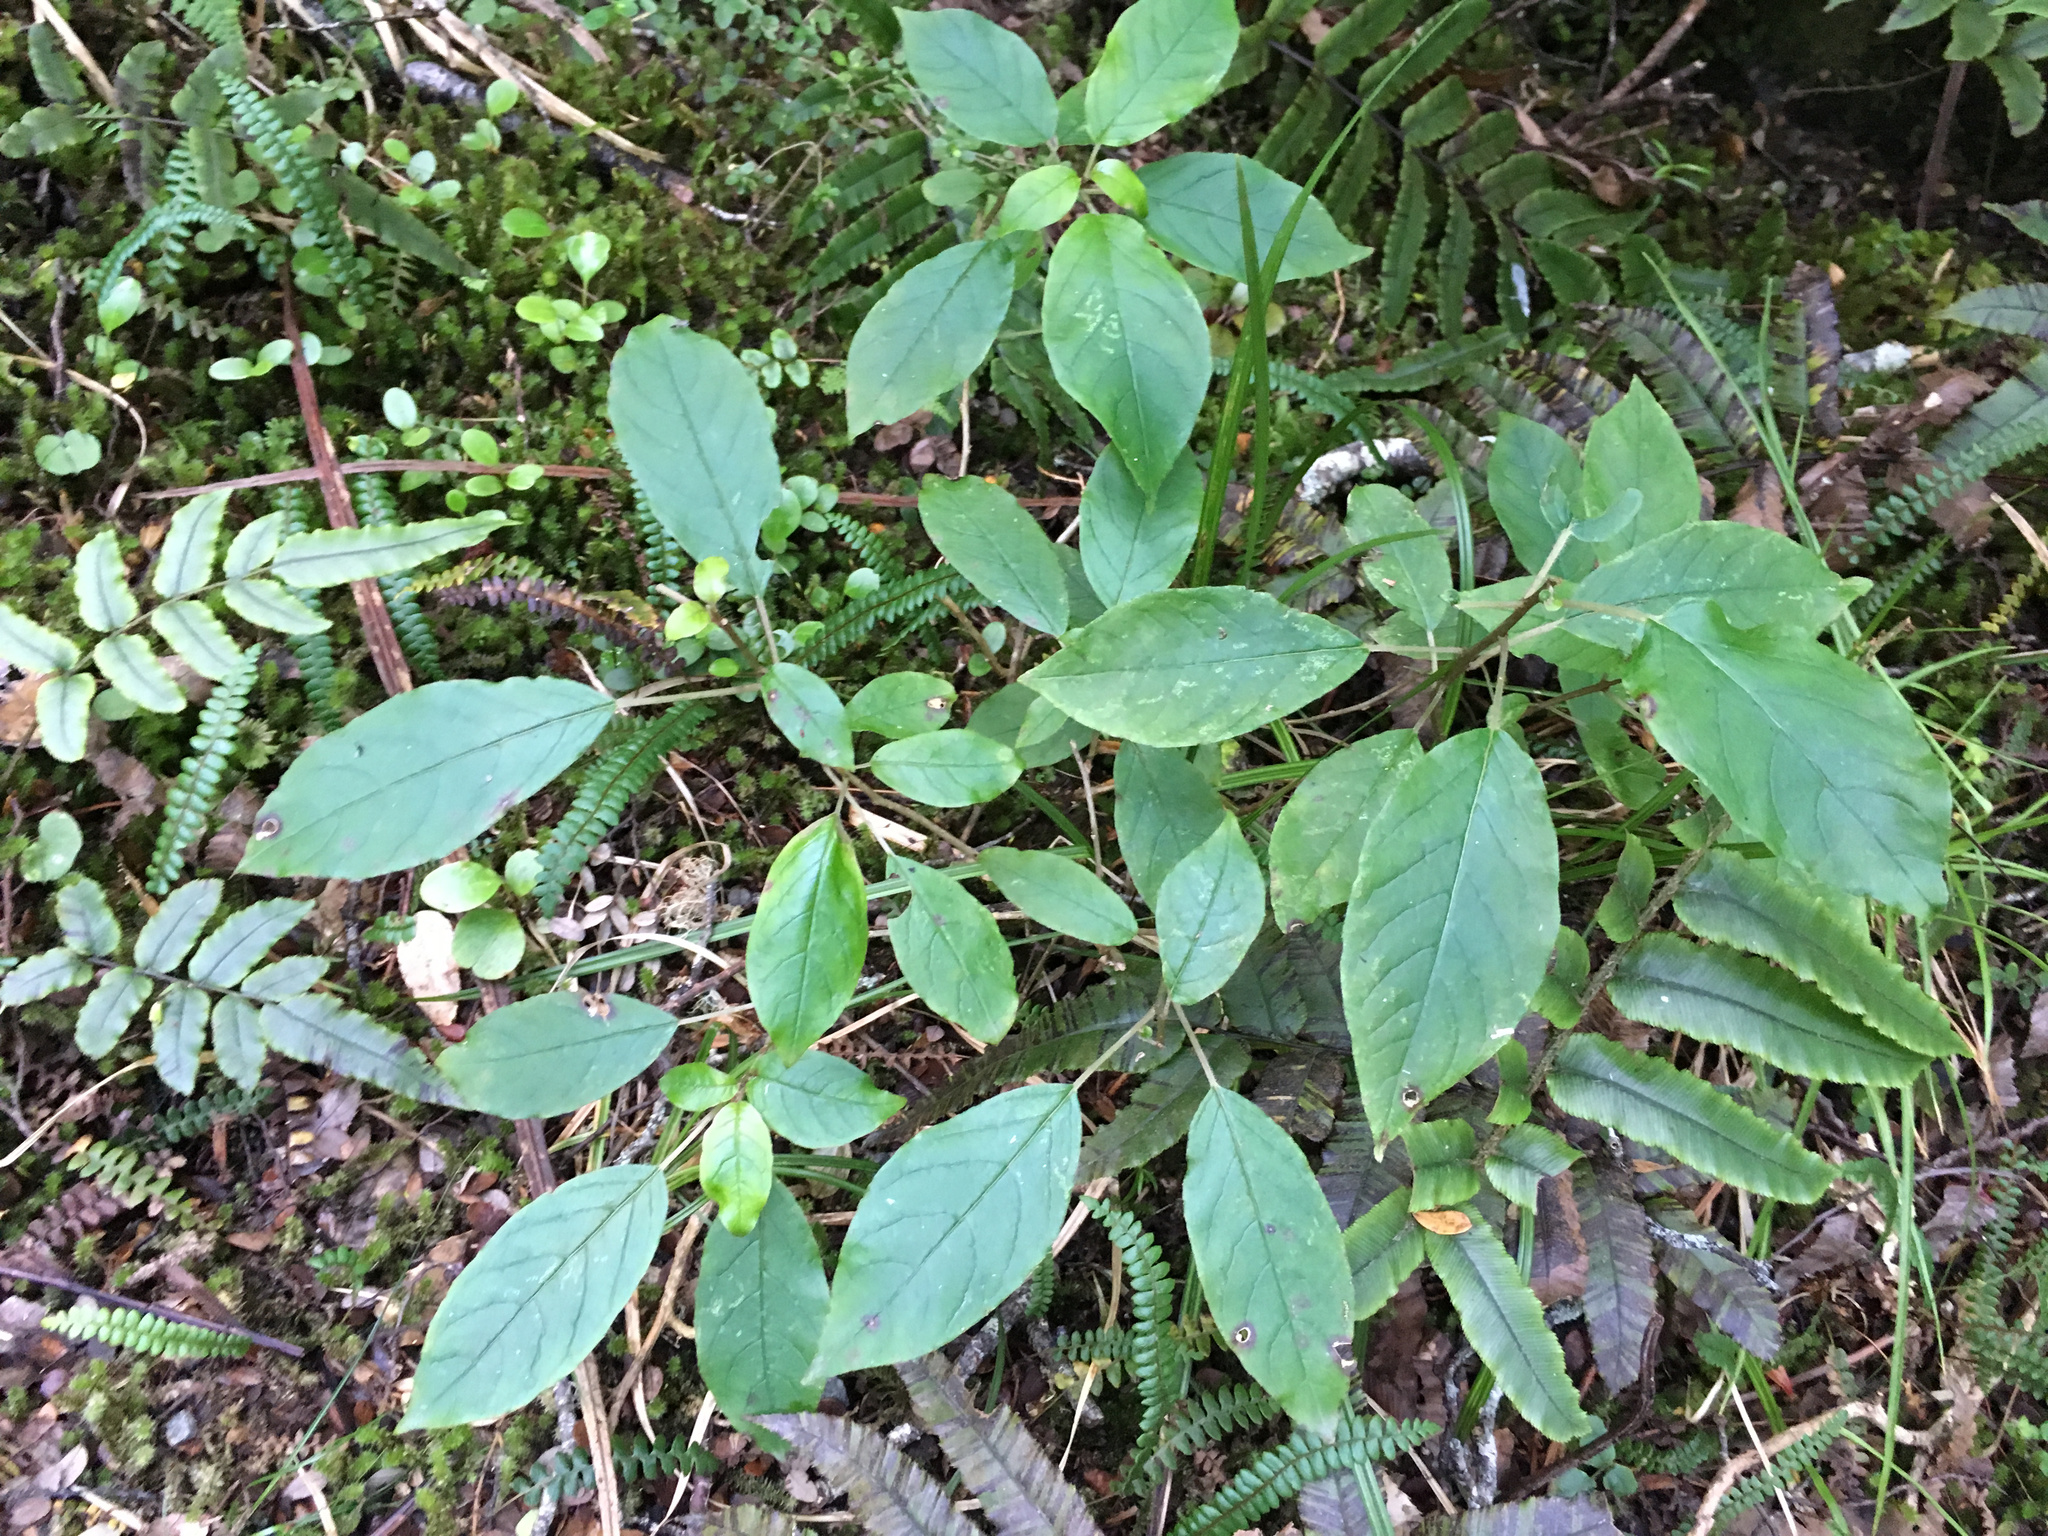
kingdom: Plantae
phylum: Tracheophyta
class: Magnoliopsida
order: Myrtales
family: Onagraceae
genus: Fuchsia
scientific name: Fuchsia excorticata
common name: Tree fuchsia
